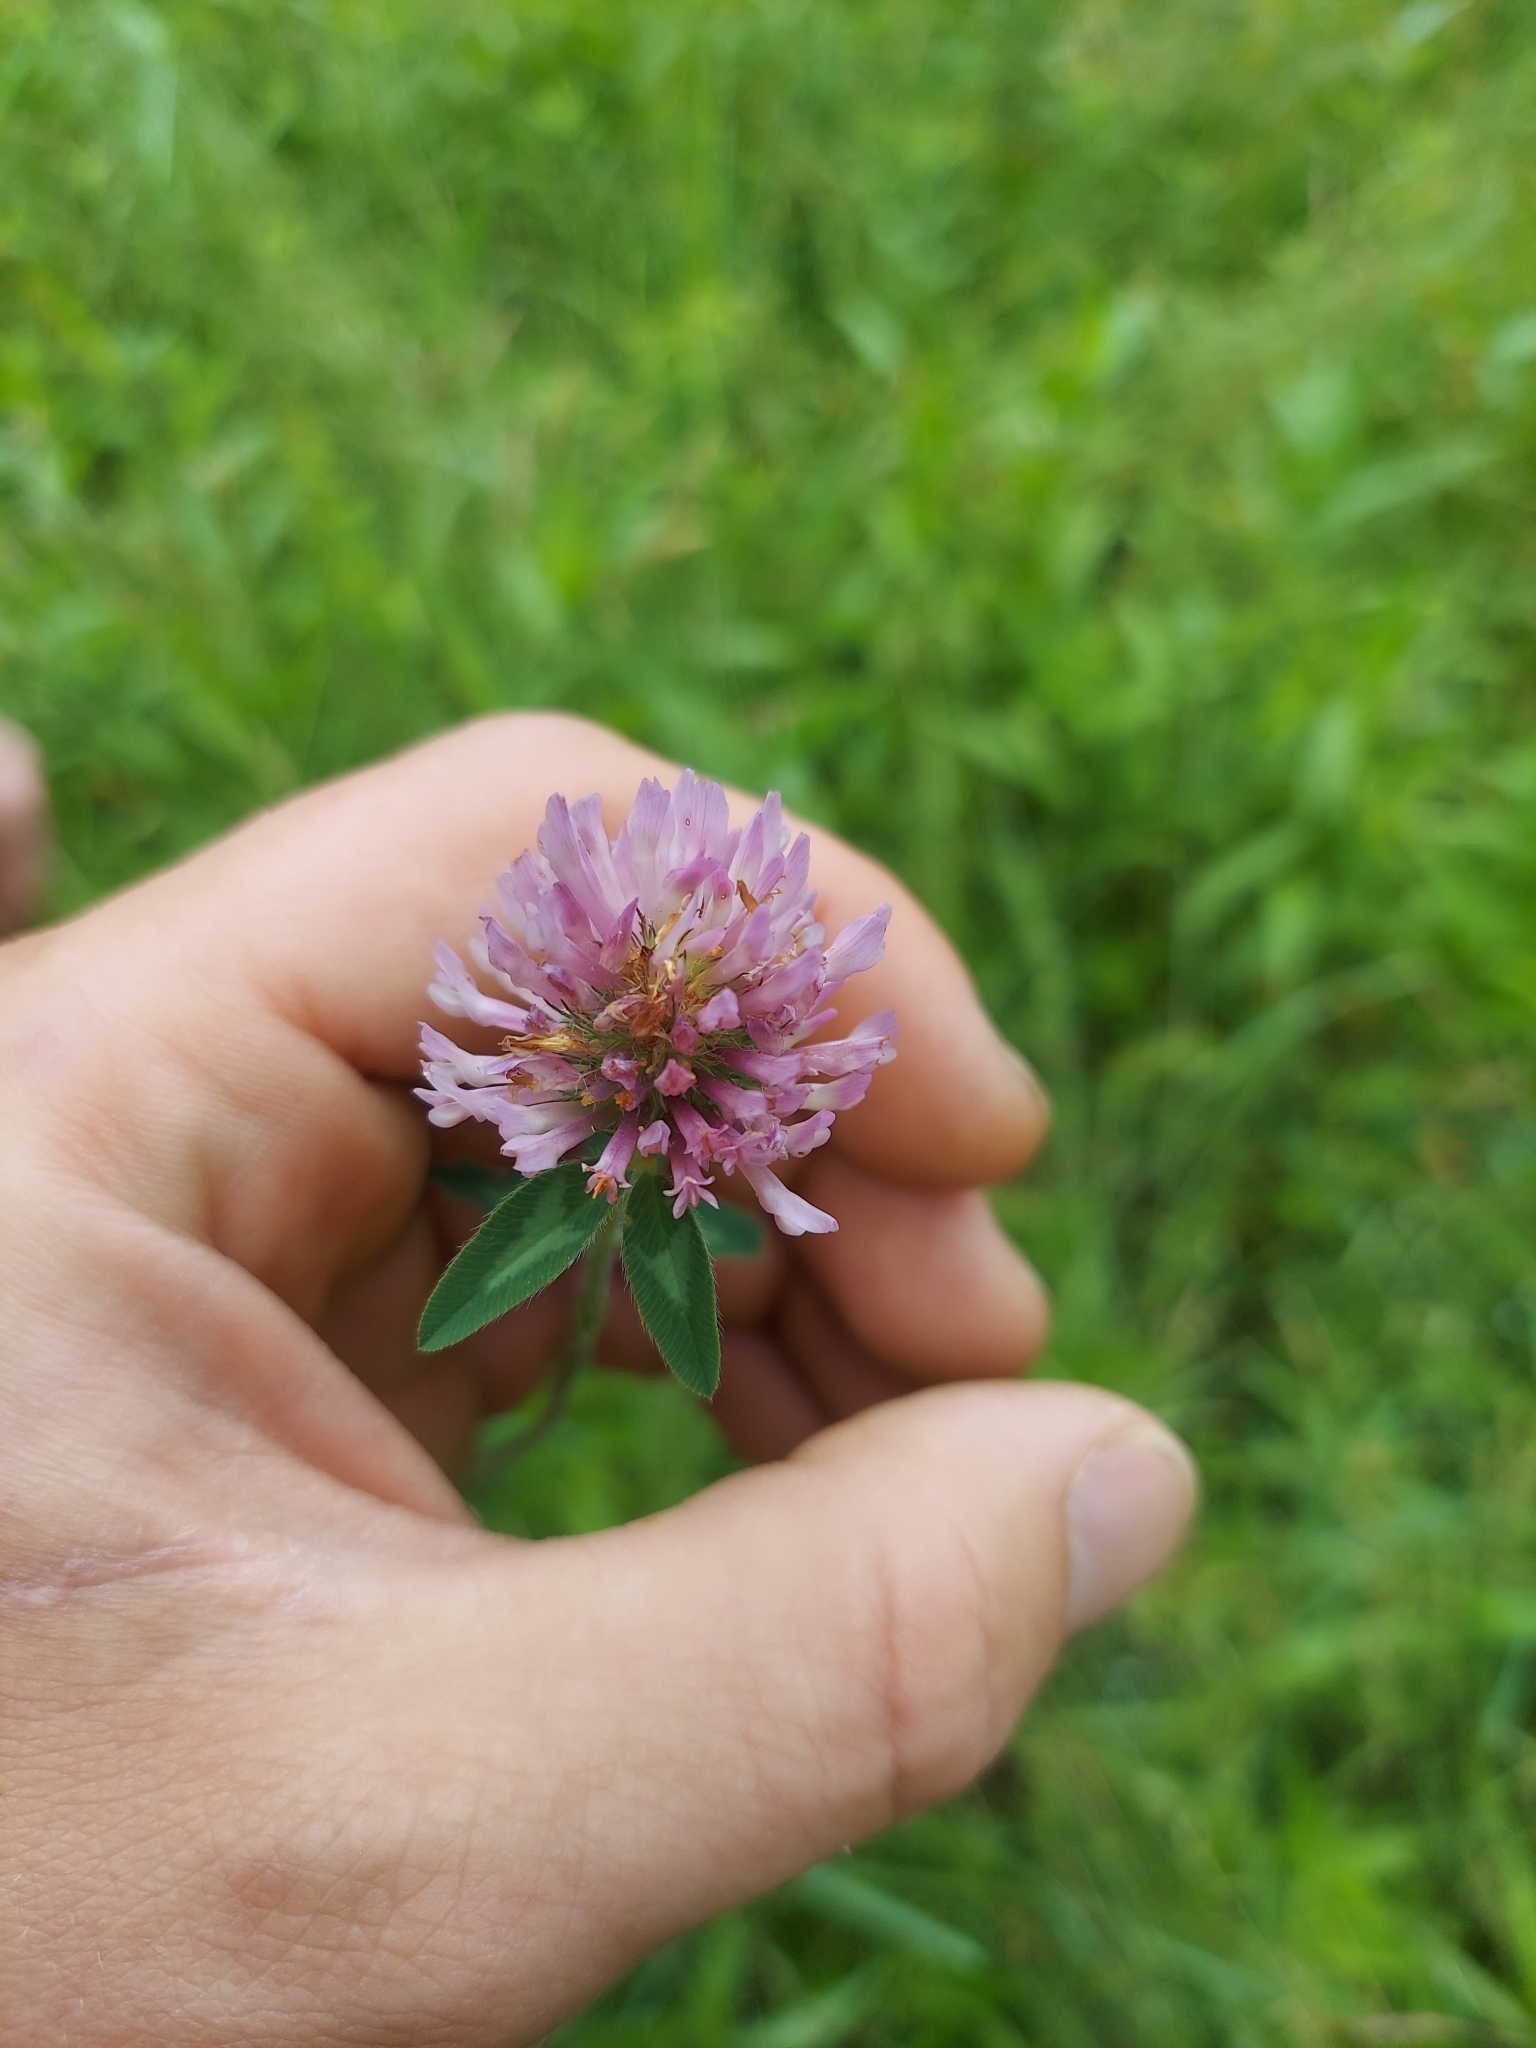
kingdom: Plantae
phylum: Tracheophyta
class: Magnoliopsida
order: Fabales
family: Fabaceae
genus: Trifolium
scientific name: Trifolium pratense
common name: Red clover
